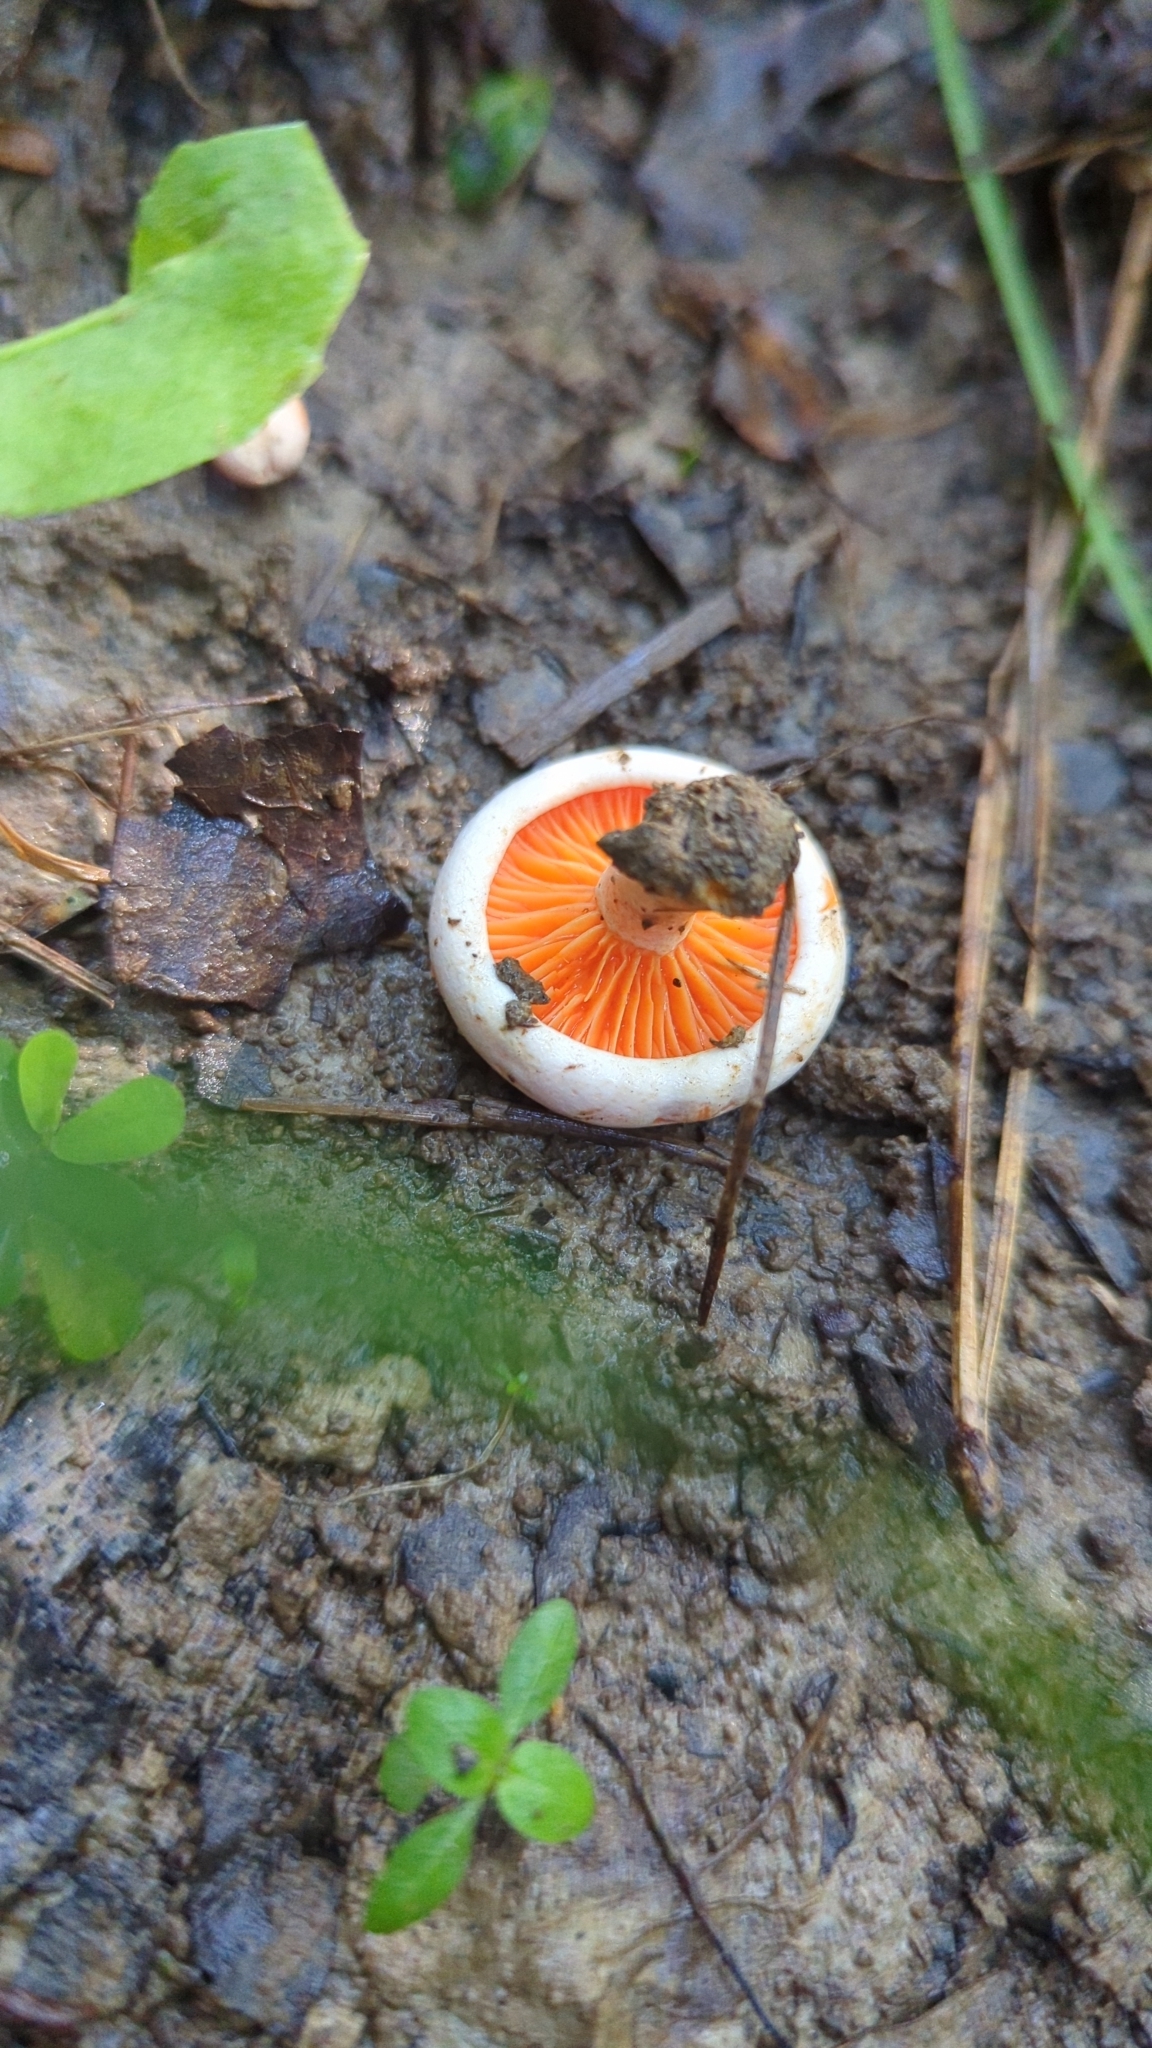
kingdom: Fungi
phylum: Basidiomycota
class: Agaricomycetes
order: Russulales
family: Russulaceae
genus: Lactarius
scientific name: Lactarius salmoneus
